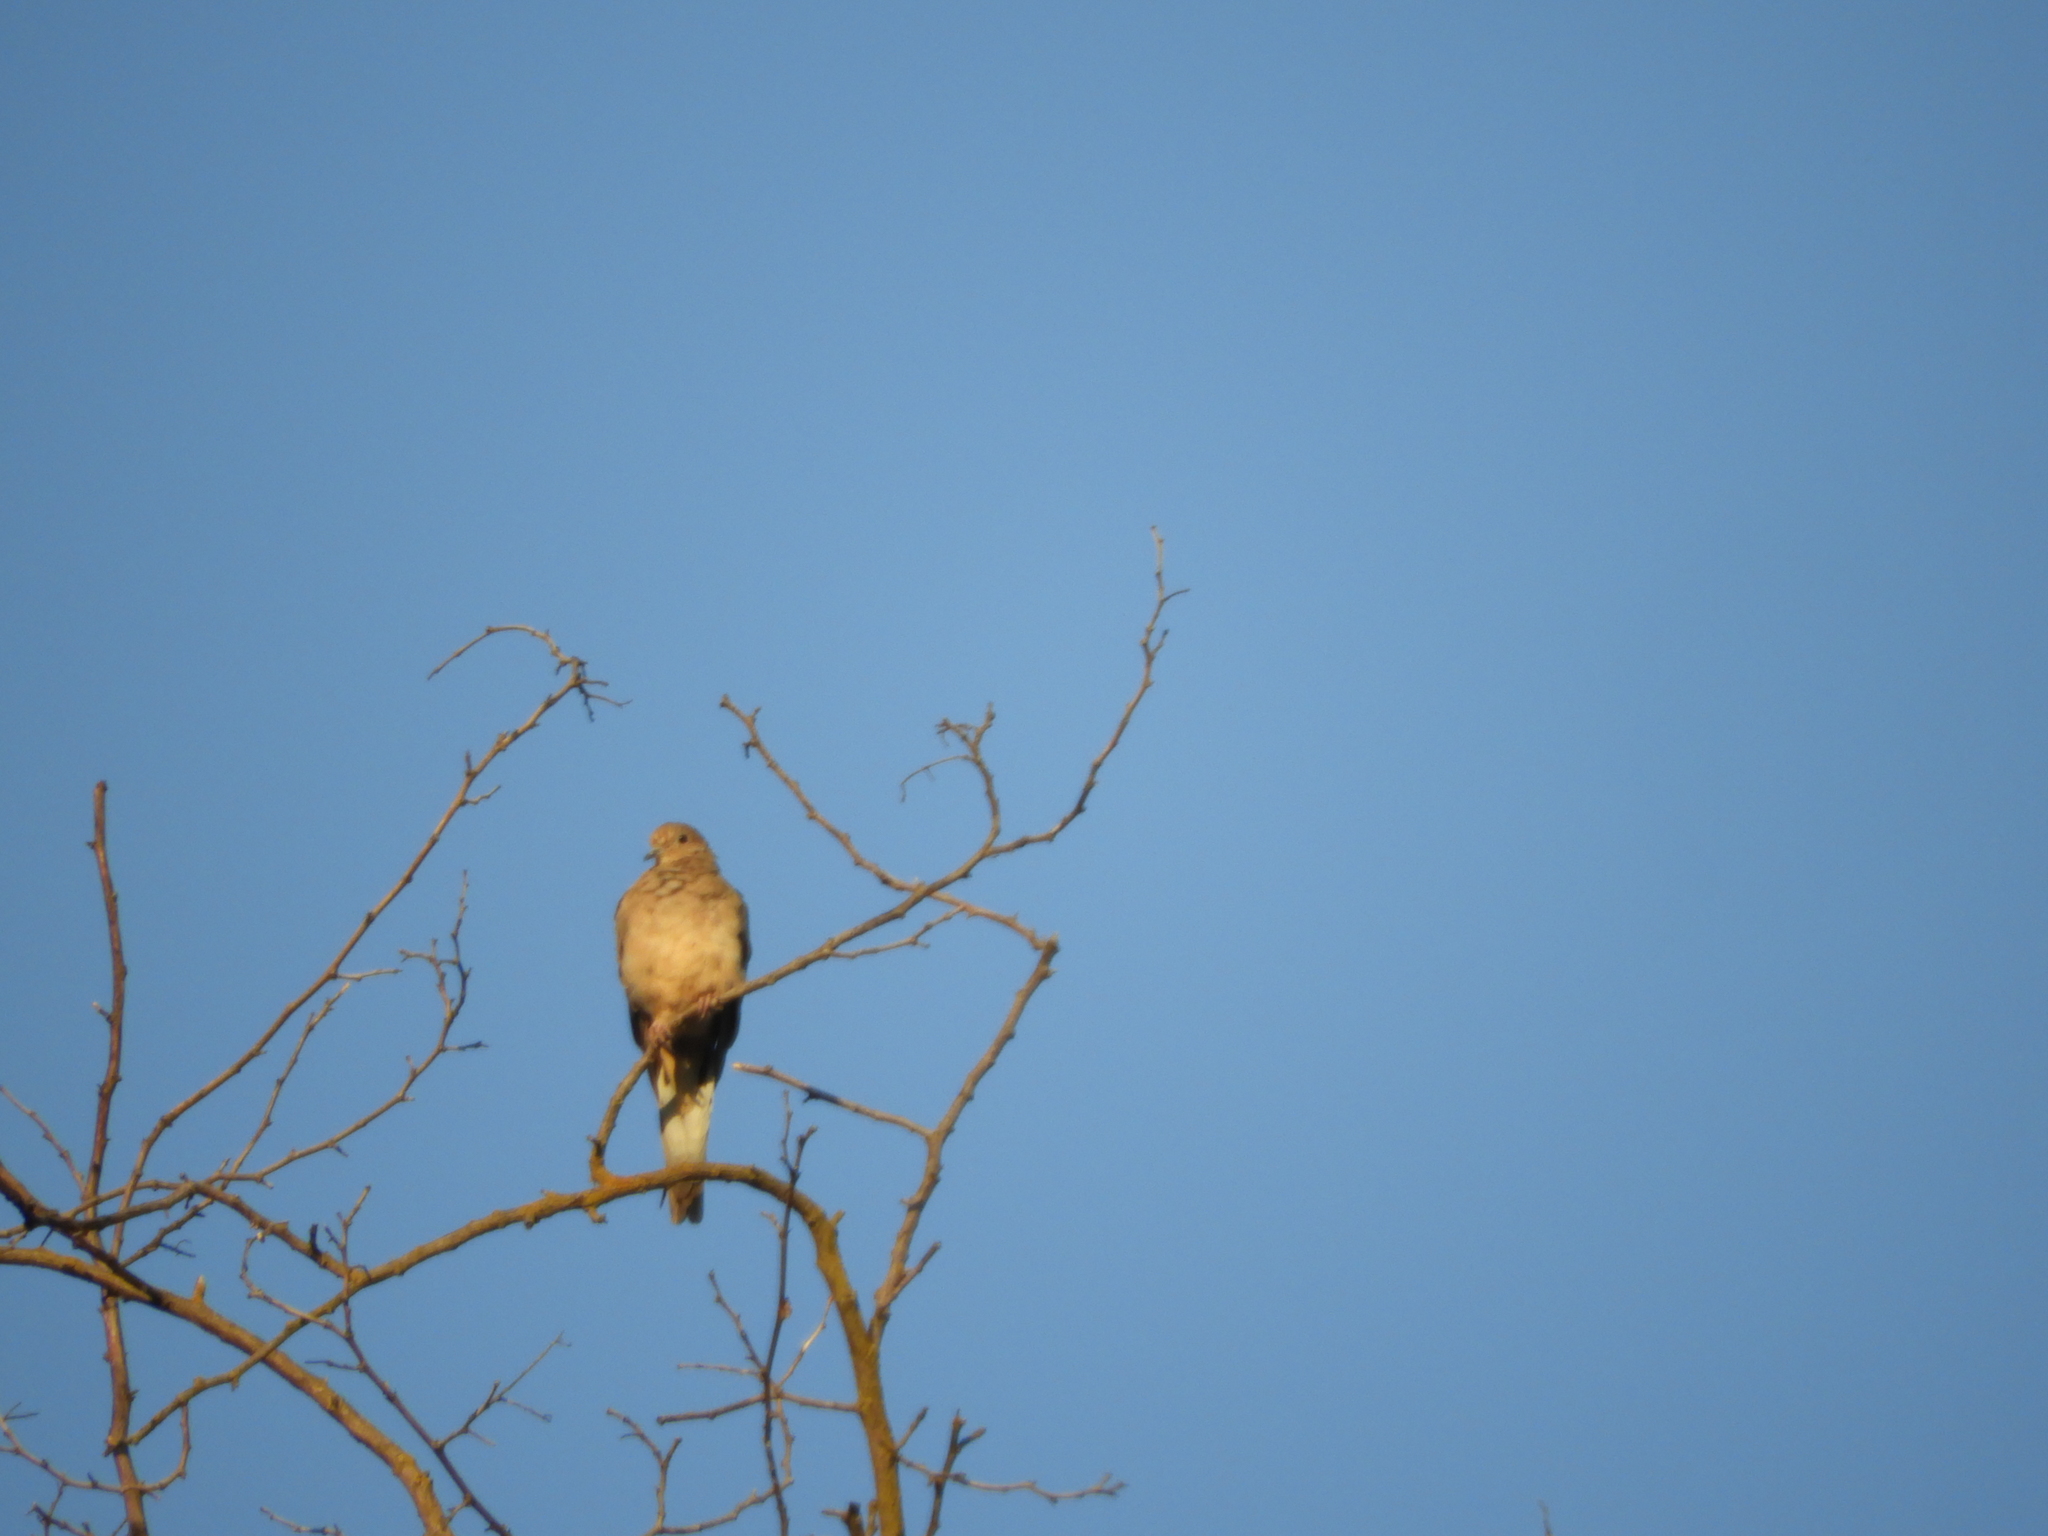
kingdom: Animalia
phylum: Chordata
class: Aves
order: Columbiformes
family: Columbidae
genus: Zenaida
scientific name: Zenaida macroura
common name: Mourning dove
